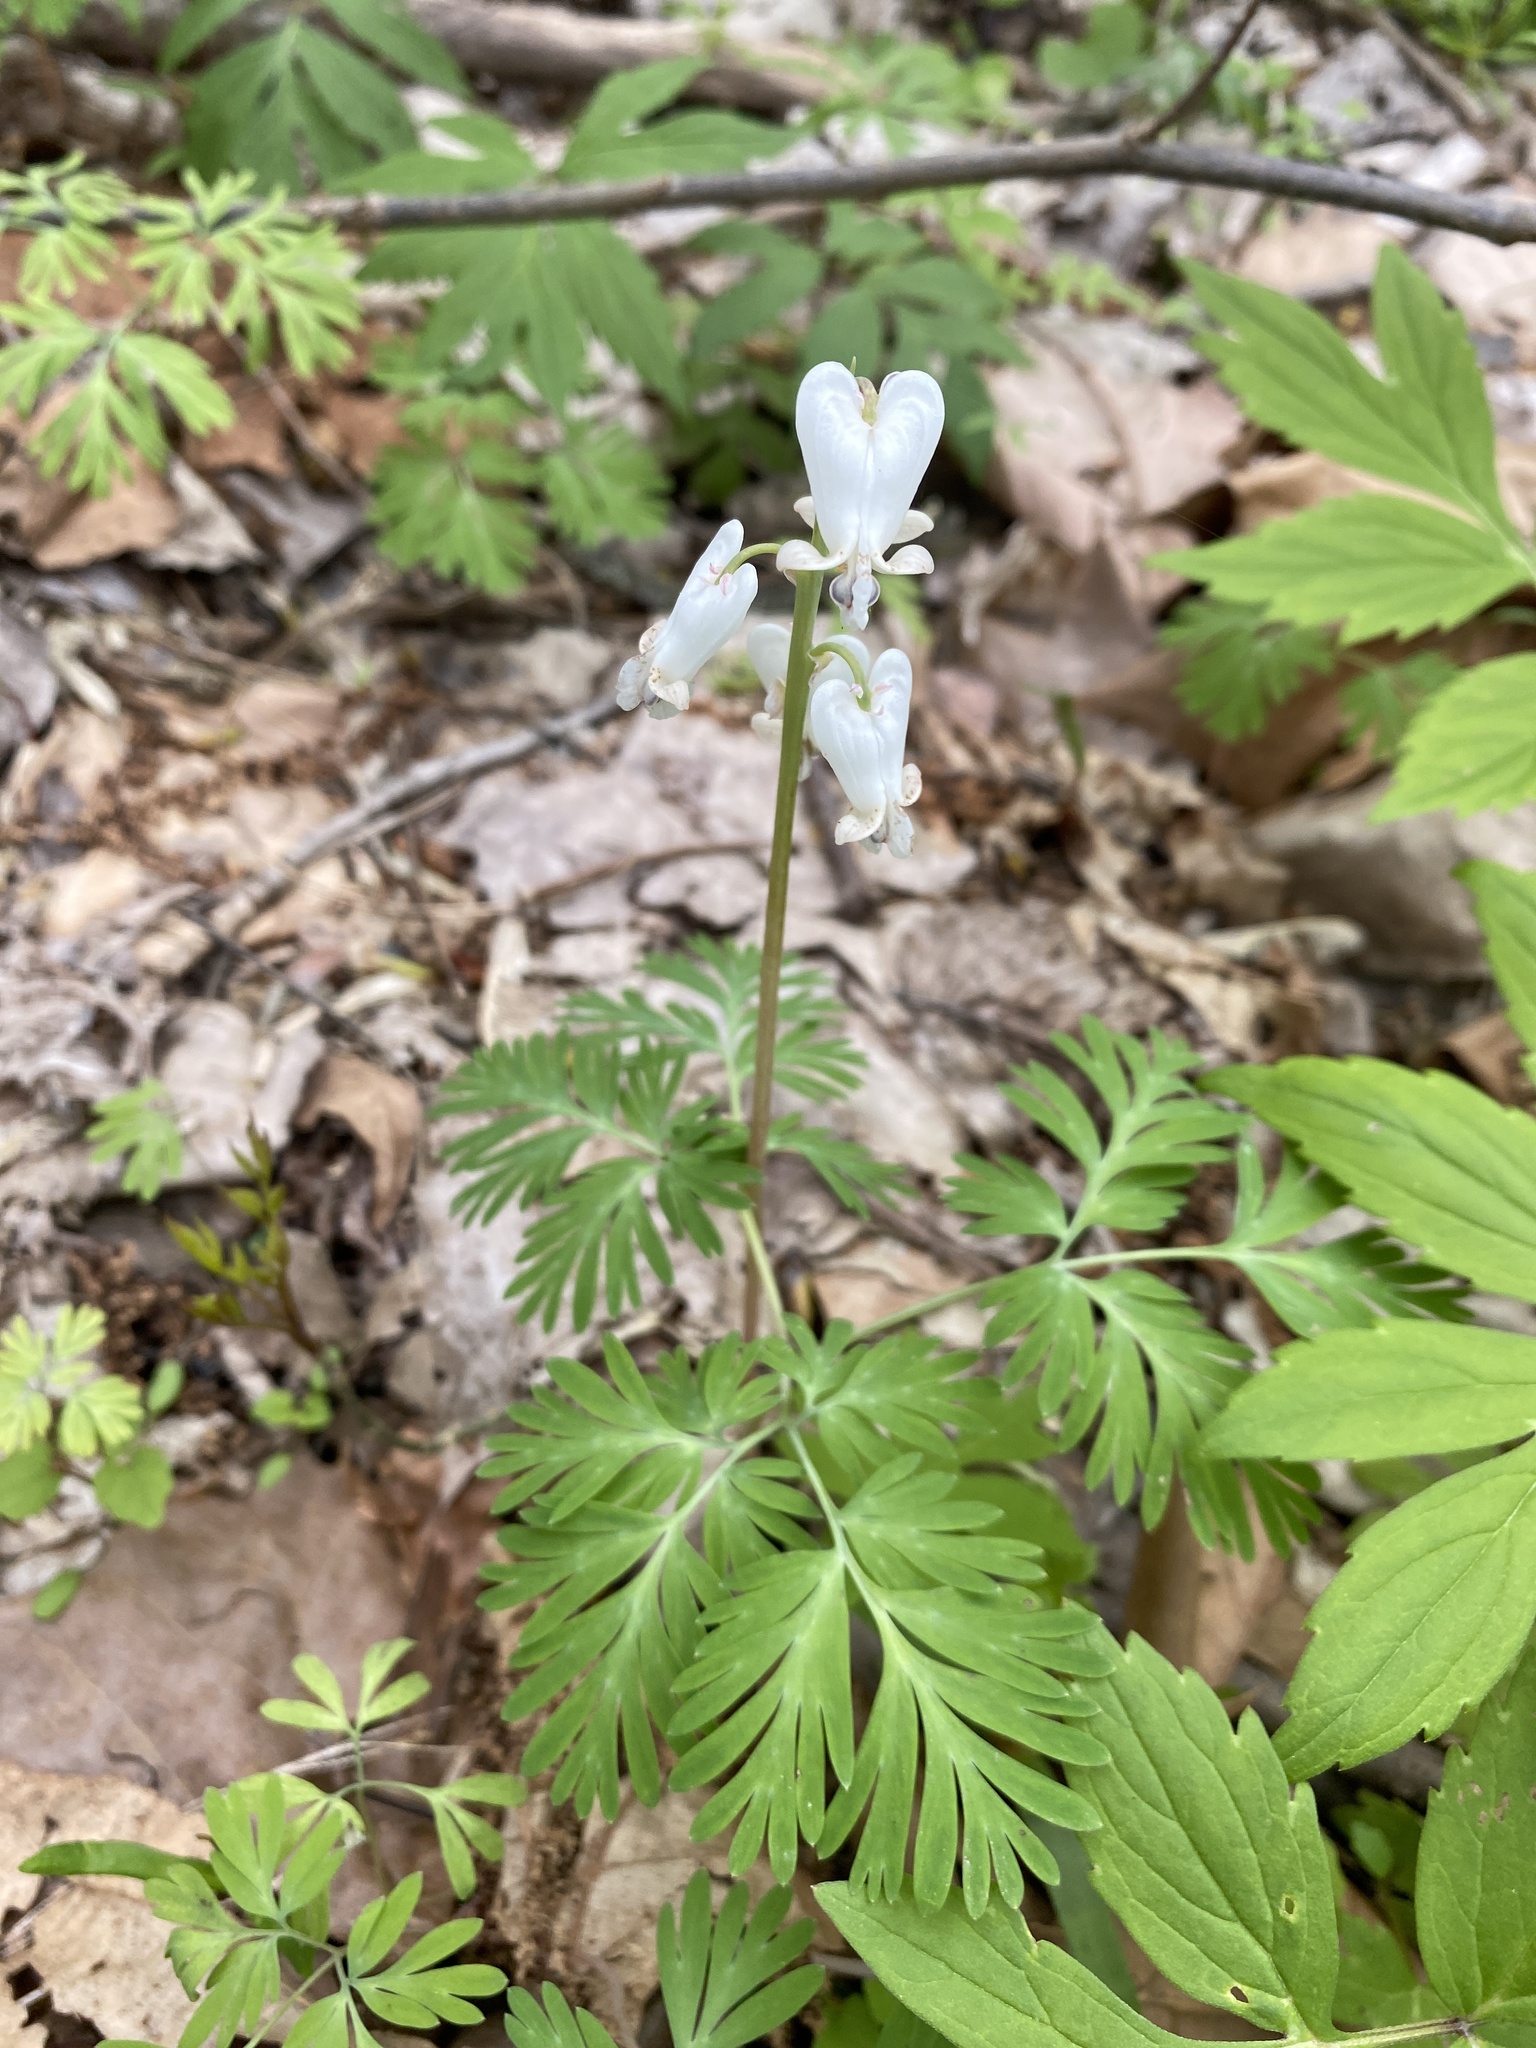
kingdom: Plantae
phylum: Tracheophyta
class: Magnoliopsida
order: Ranunculales
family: Papaveraceae
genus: Dicentra
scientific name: Dicentra canadensis
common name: Squirrel-corn
